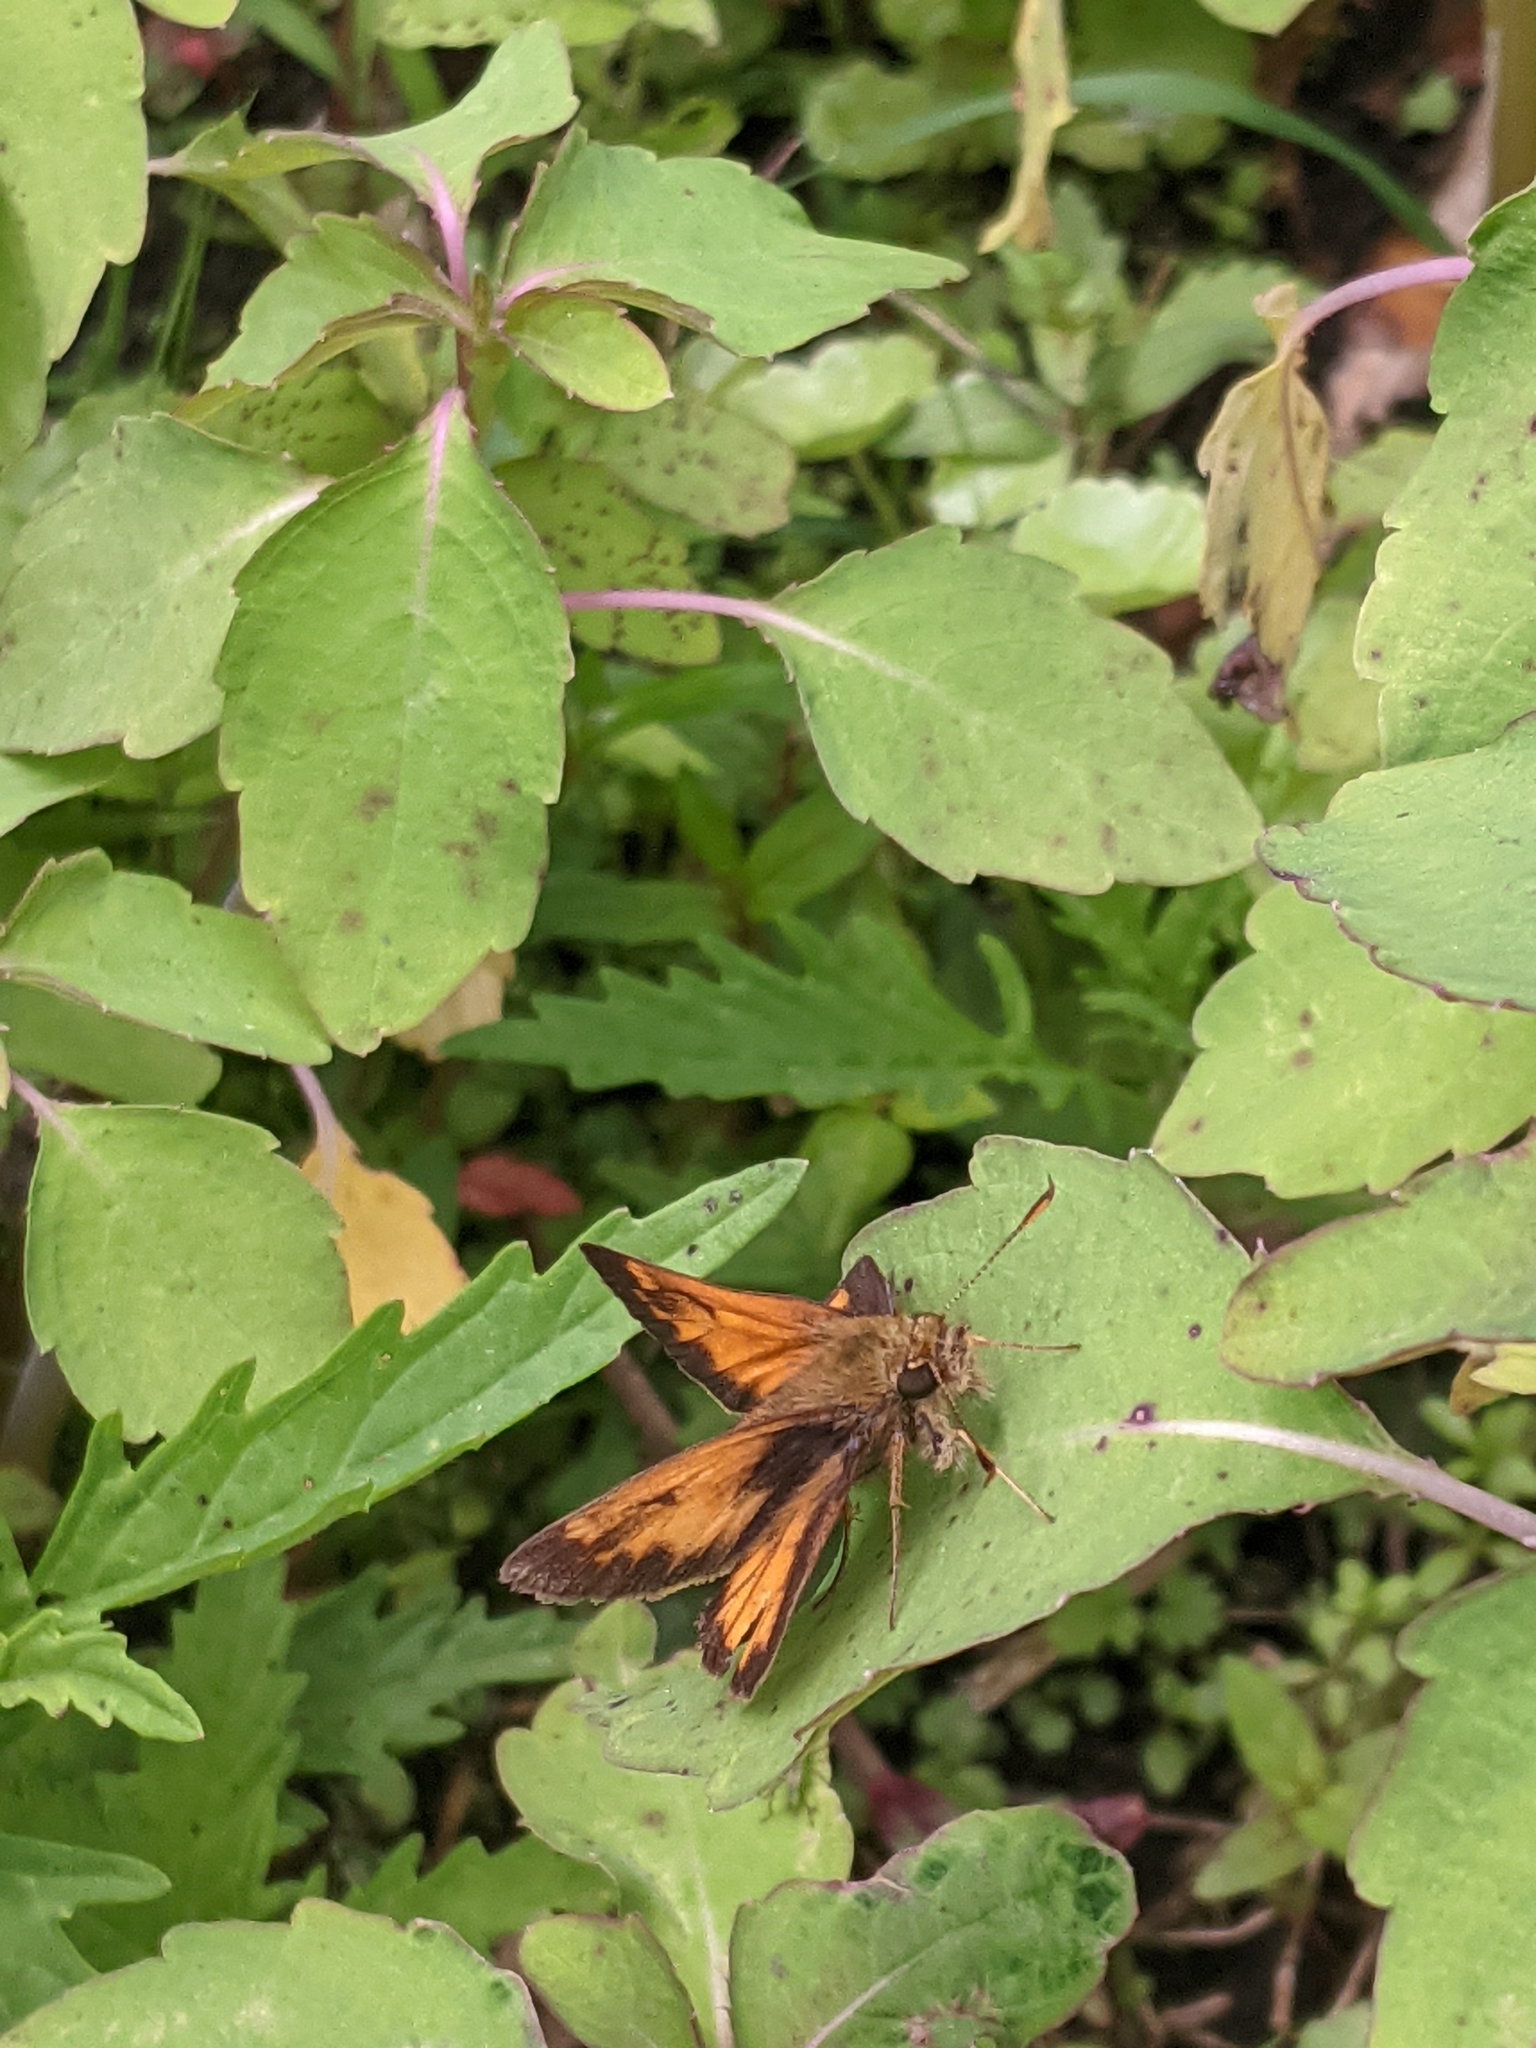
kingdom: Animalia
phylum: Arthropoda
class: Insecta
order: Lepidoptera
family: Hesperiidae
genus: Lon
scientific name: Lon hobomok
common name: Hobomok skipper
